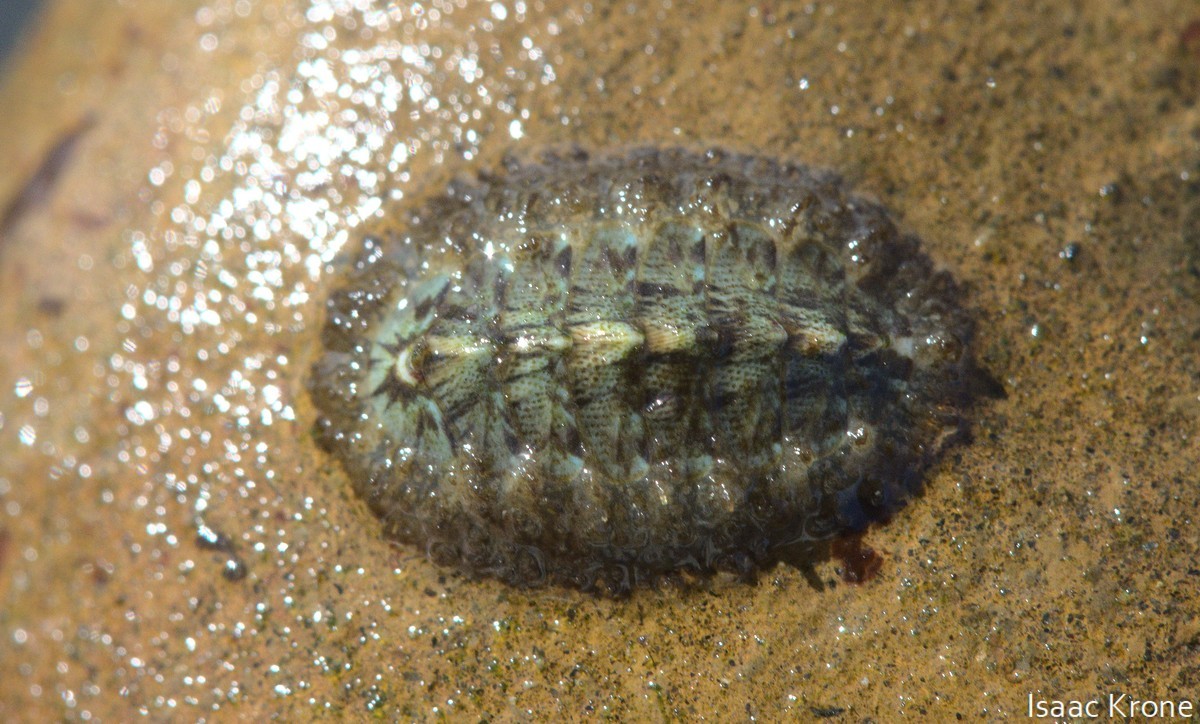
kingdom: Animalia
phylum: Mollusca
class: Polyplacophora
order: Chitonida
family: Mopaliidae
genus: Mopalia
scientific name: Mopalia lignosa
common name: Woody chiton
